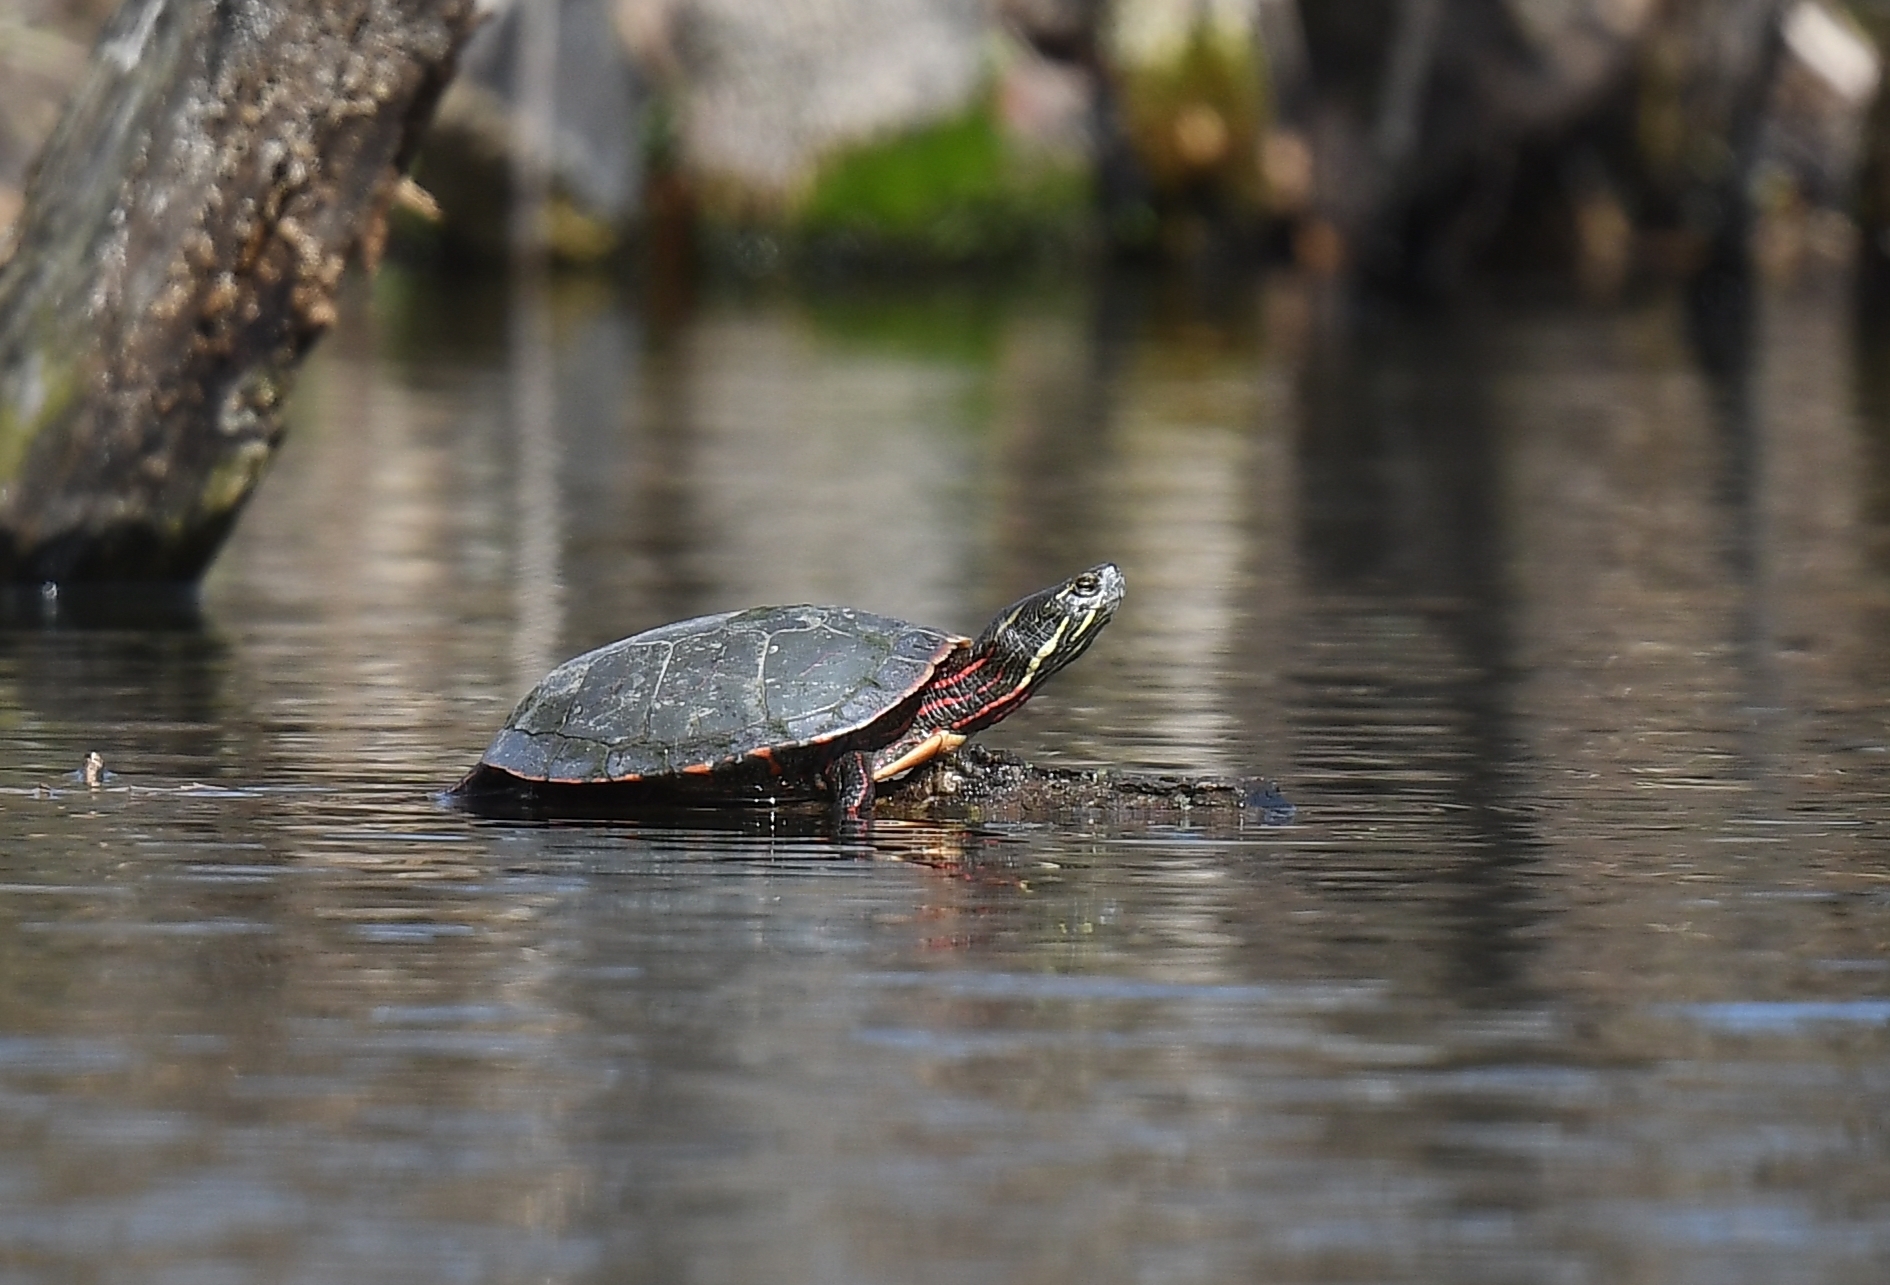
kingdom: Animalia
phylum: Chordata
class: Testudines
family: Emydidae
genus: Chrysemys
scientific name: Chrysemys picta
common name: Painted turtle
